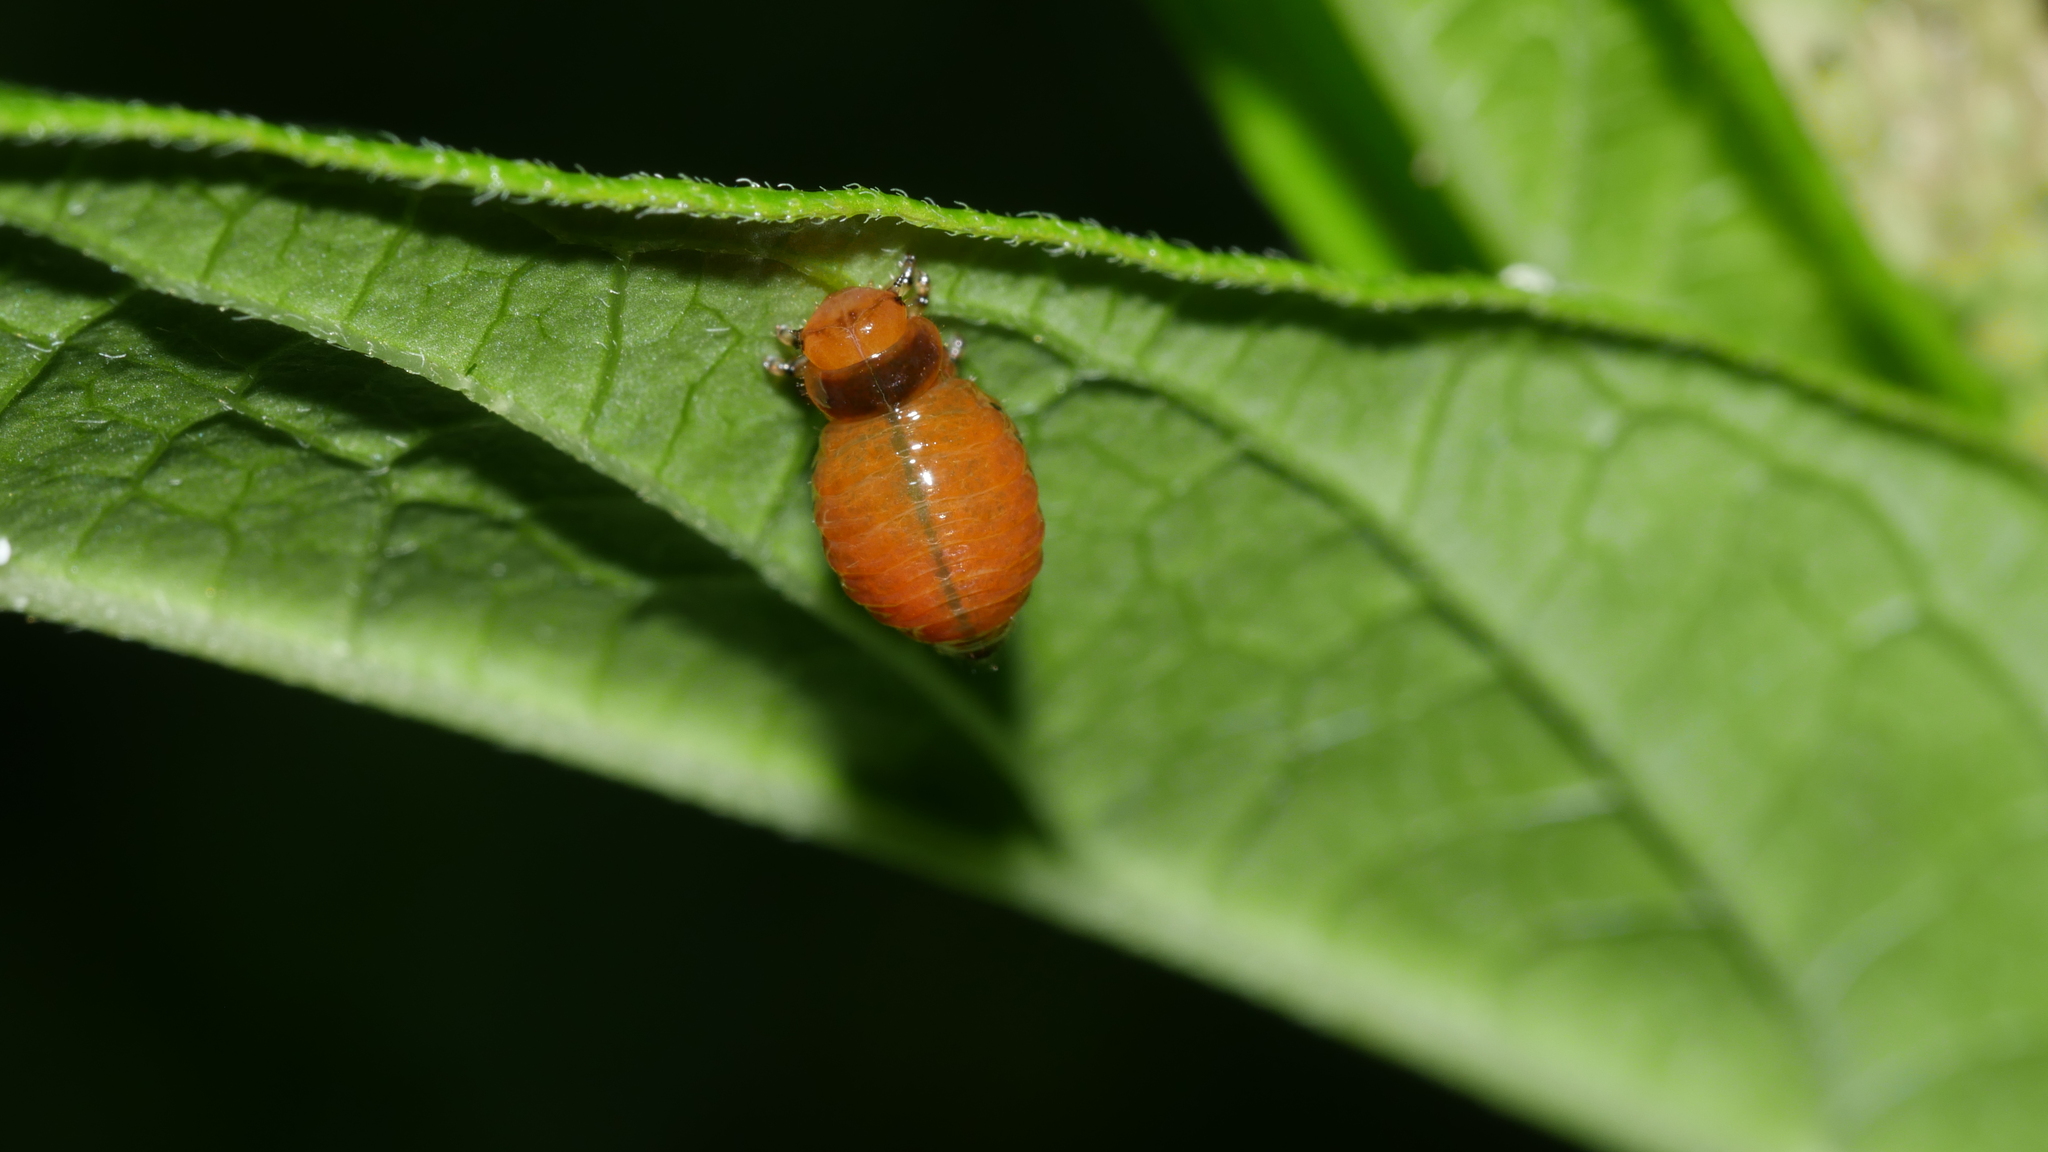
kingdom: Animalia
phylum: Arthropoda
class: Insecta
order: Coleoptera
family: Chrysomelidae
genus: Labidomera
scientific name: Labidomera clivicollis
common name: Swamp milkweed leaf beetle
